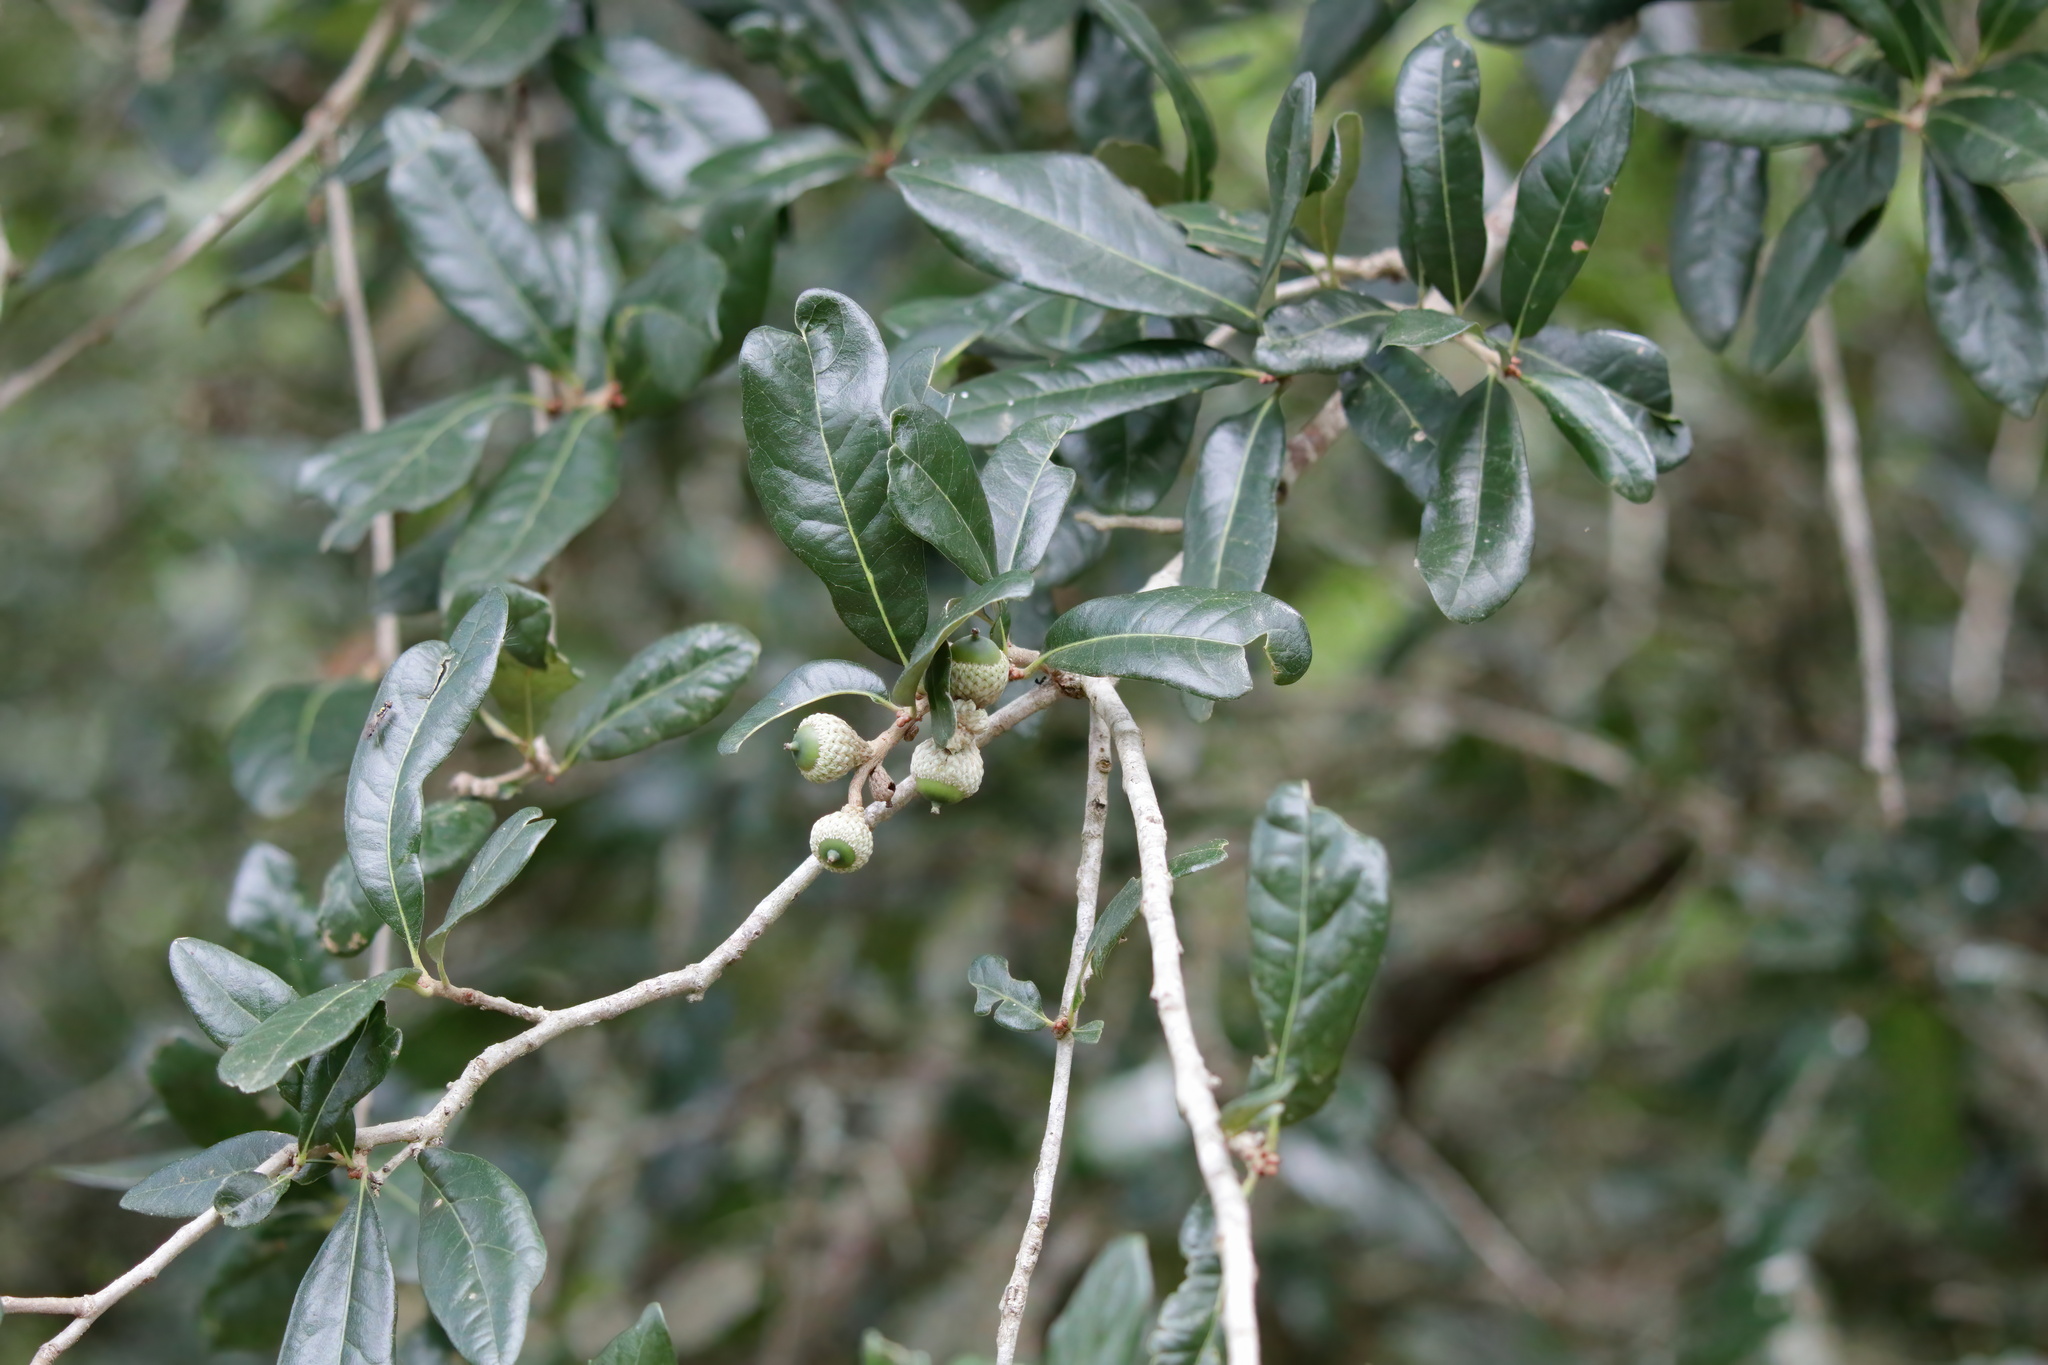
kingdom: Plantae
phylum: Tracheophyta
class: Magnoliopsida
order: Fagales
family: Fagaceae
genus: Quercus
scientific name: Quercus virginiana
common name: Southern live oak
